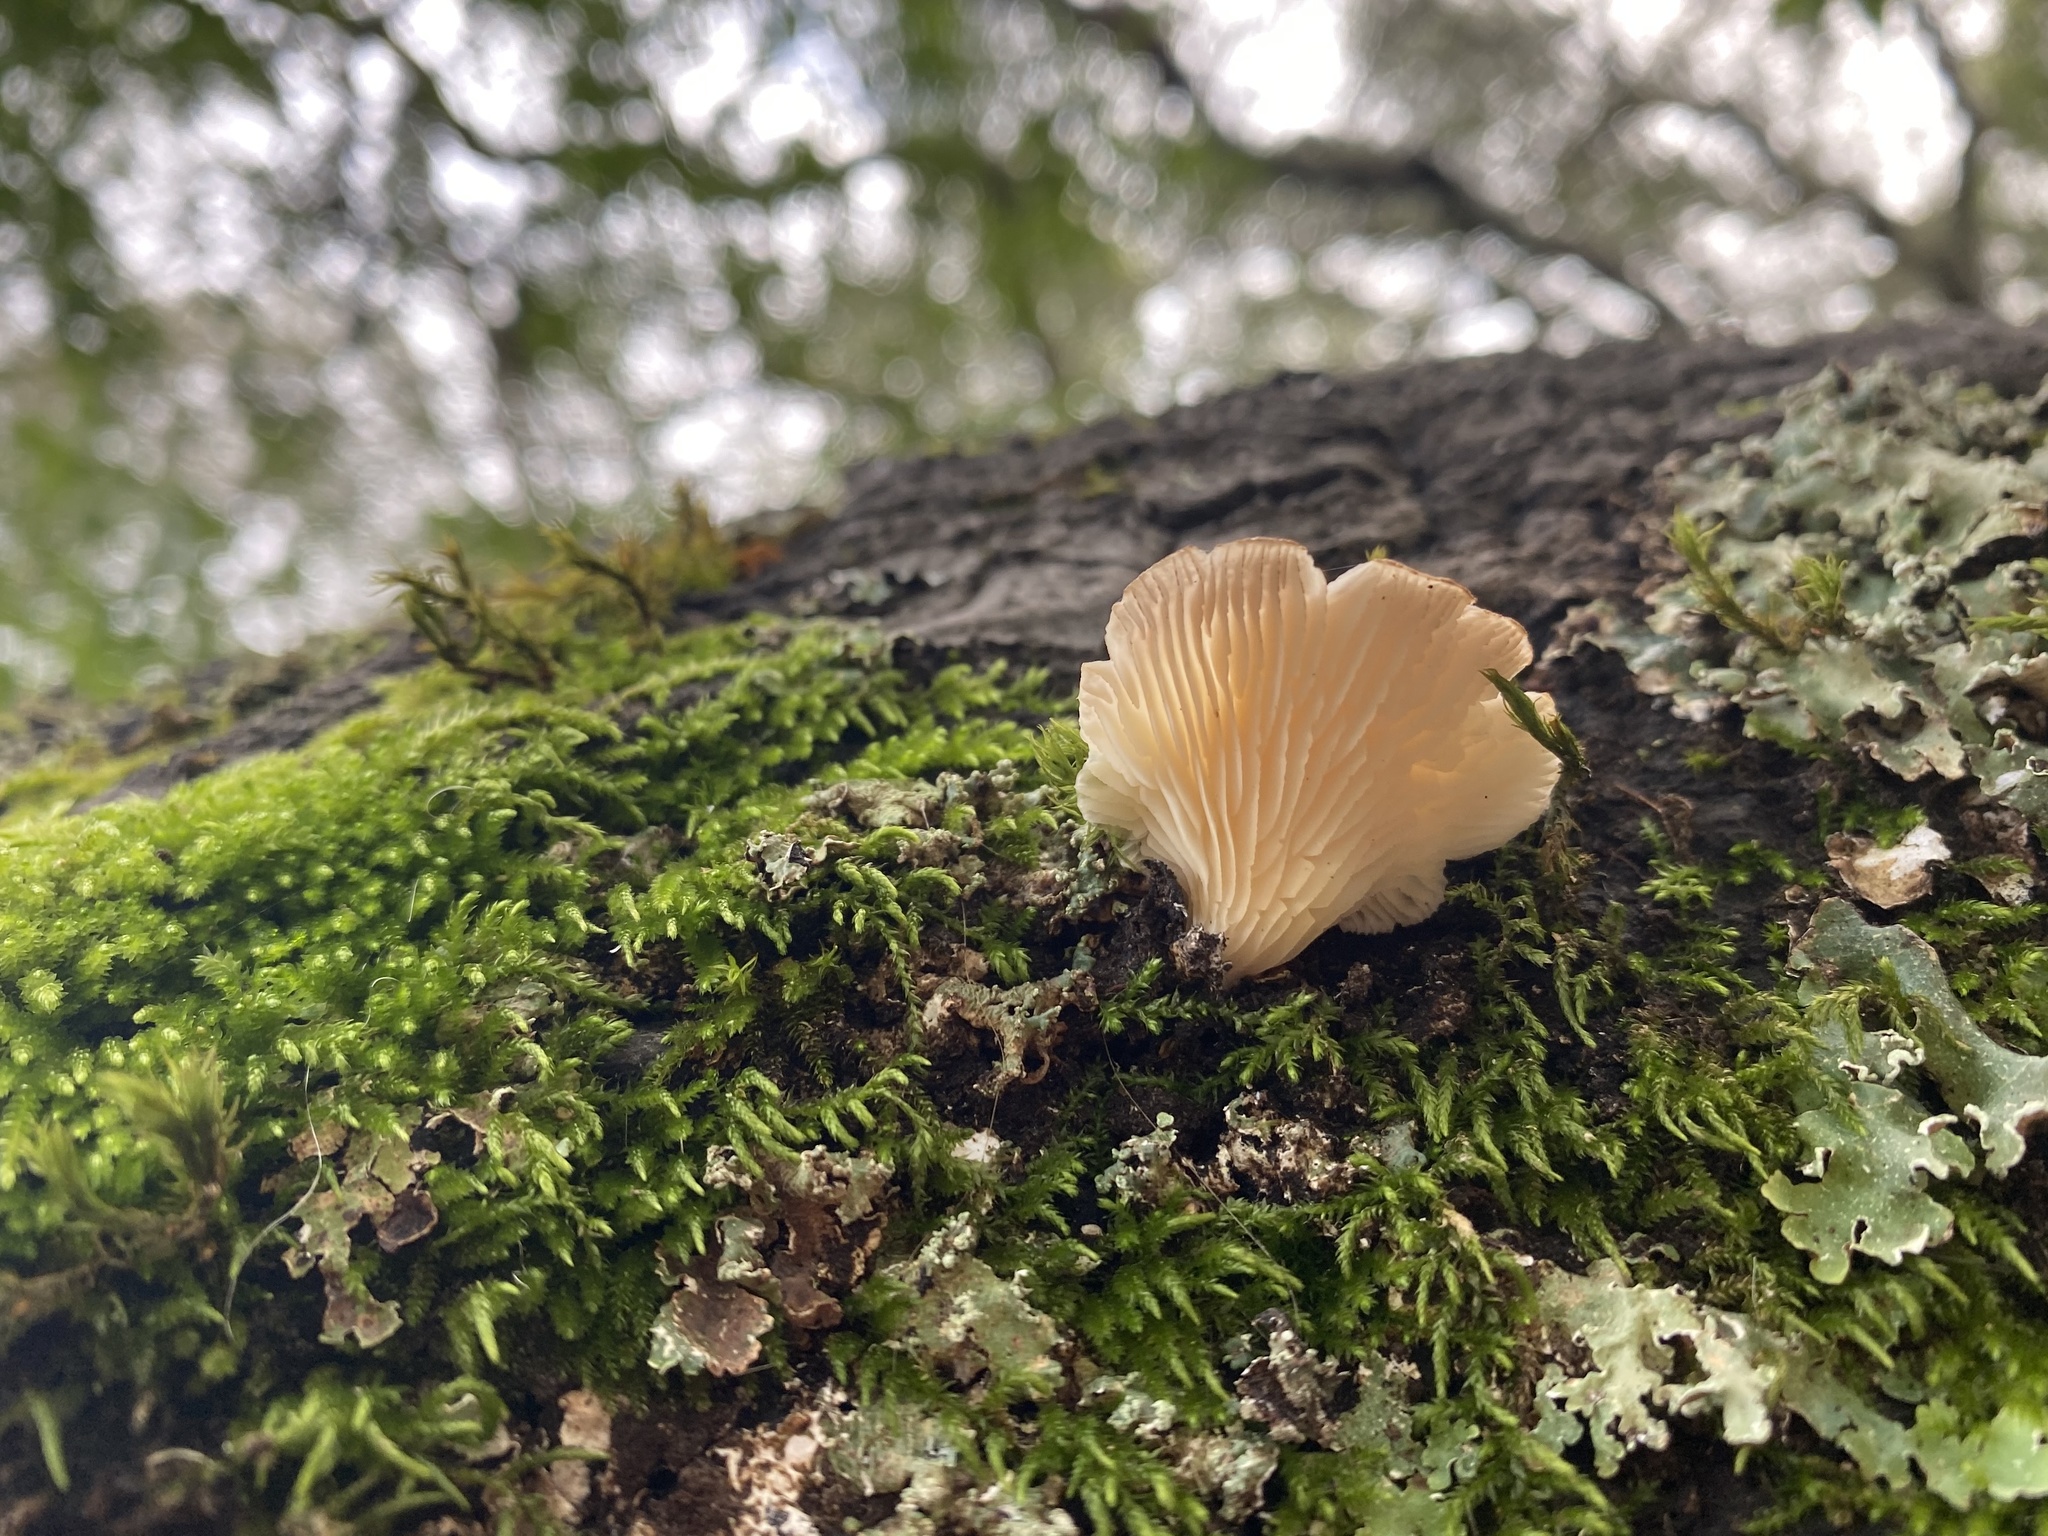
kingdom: Fungi
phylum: Basidiomycota
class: Agaricomycetes
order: Agaricales
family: Pleurotaceae
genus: Pleurotus
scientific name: Pleurotus ostreatus
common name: Oyster mushroom
